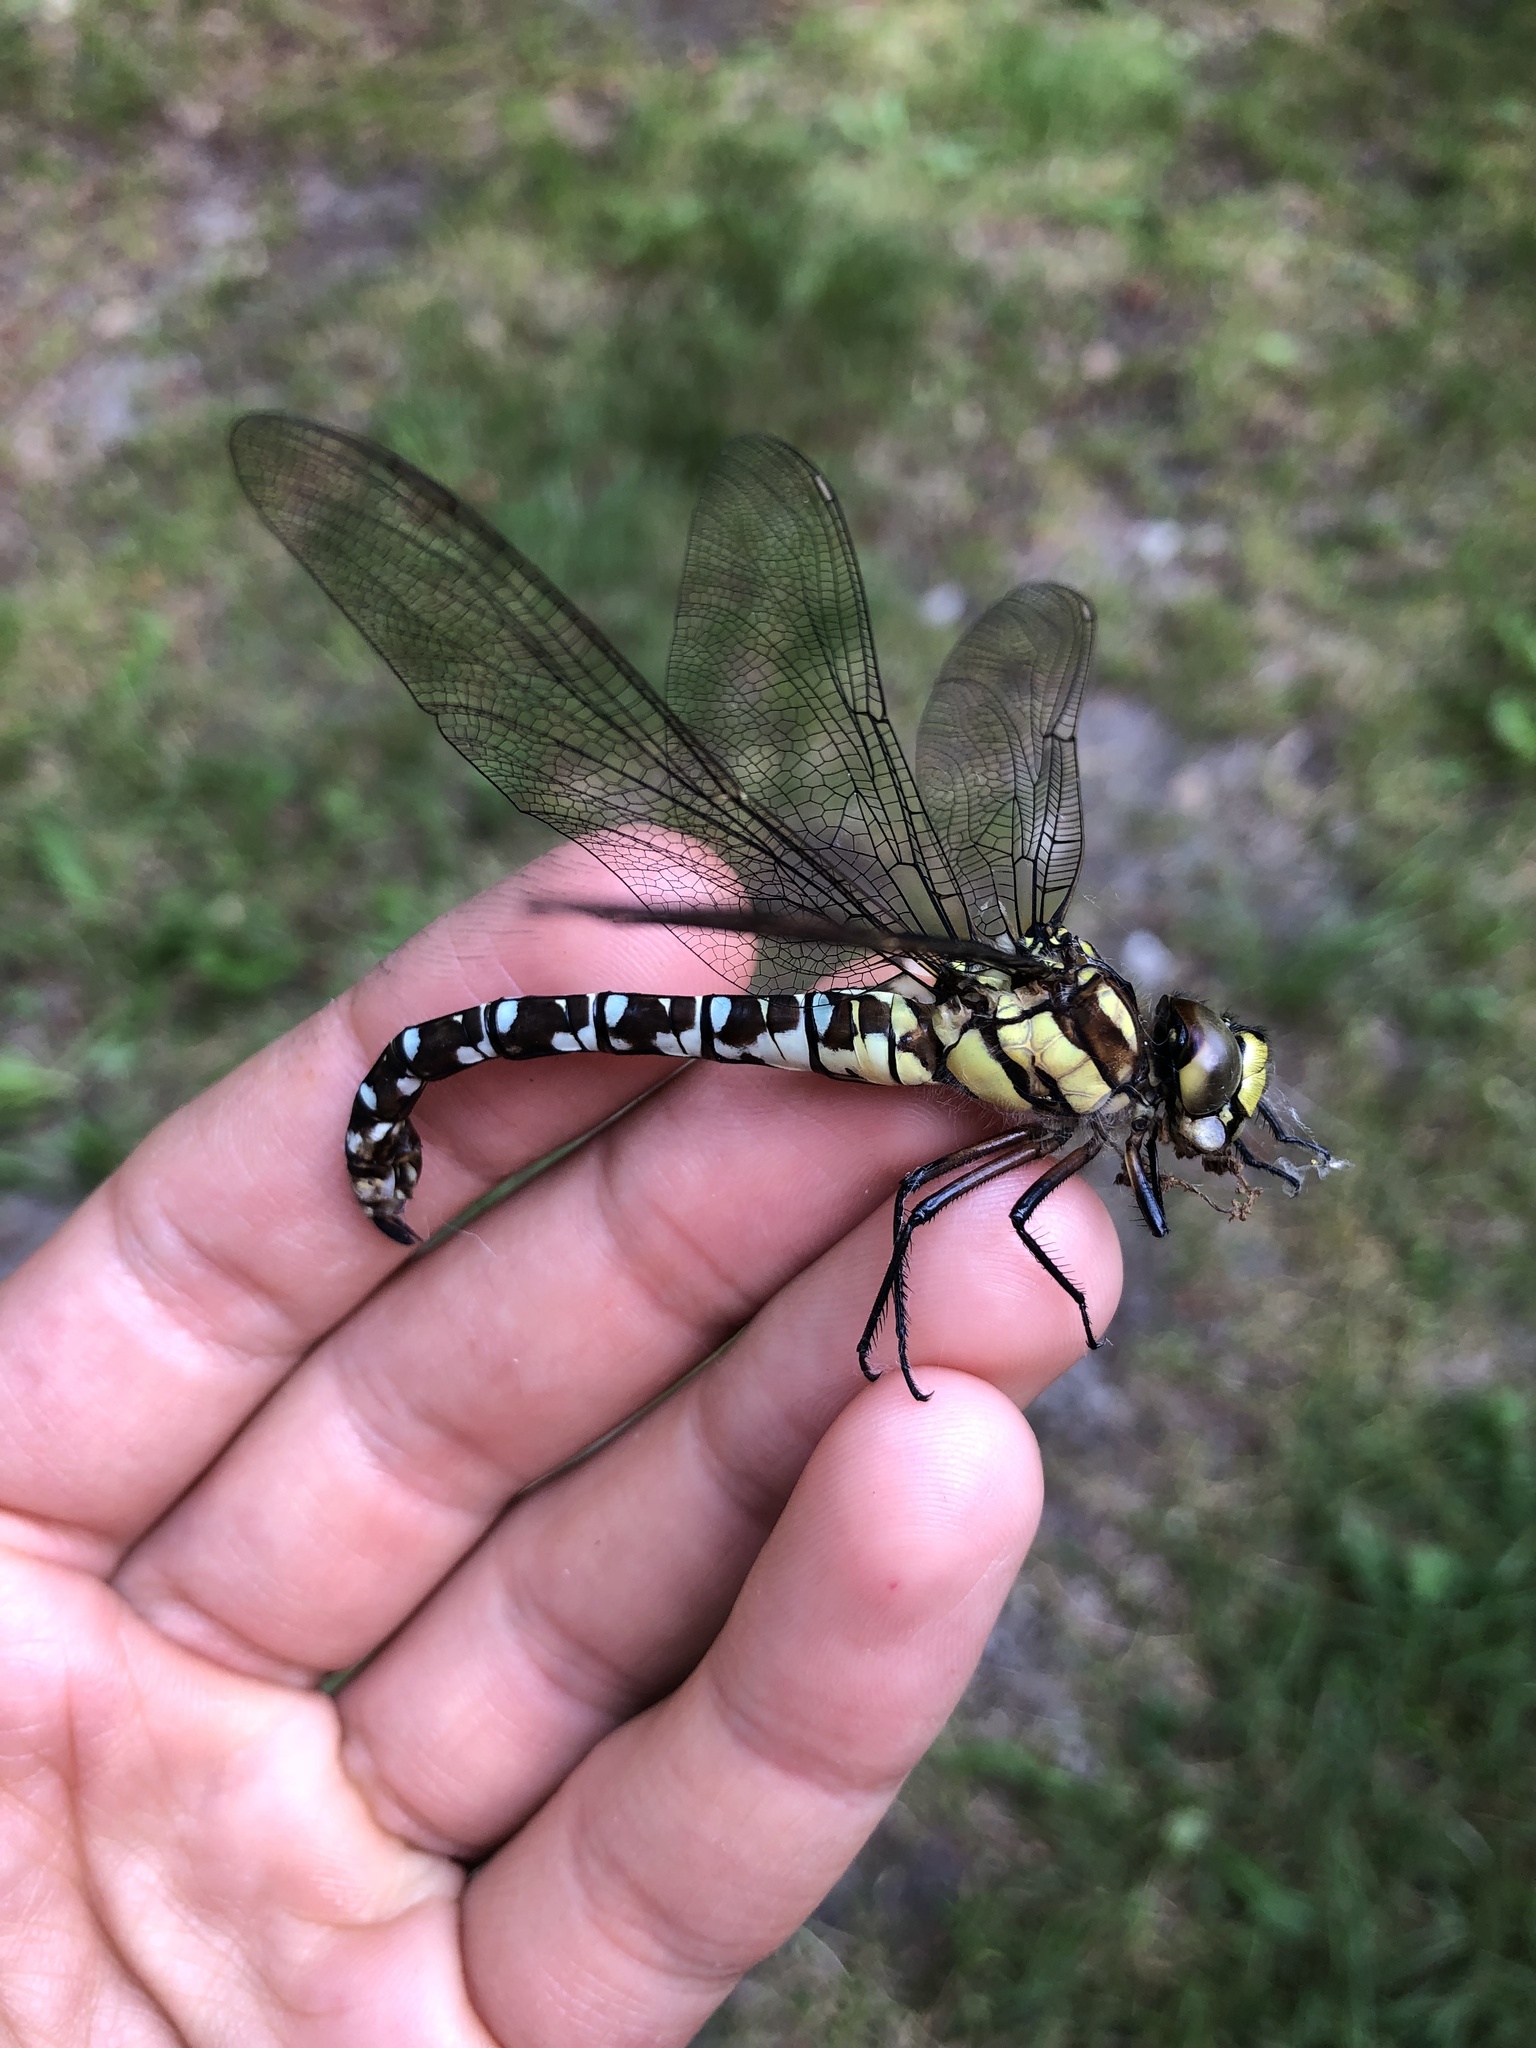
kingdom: Animalia
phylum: Arthropoda
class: Insecta
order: Odonata
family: Aeshnidae
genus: Aeshna
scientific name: Aeshna cyanea
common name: Southern hawker
